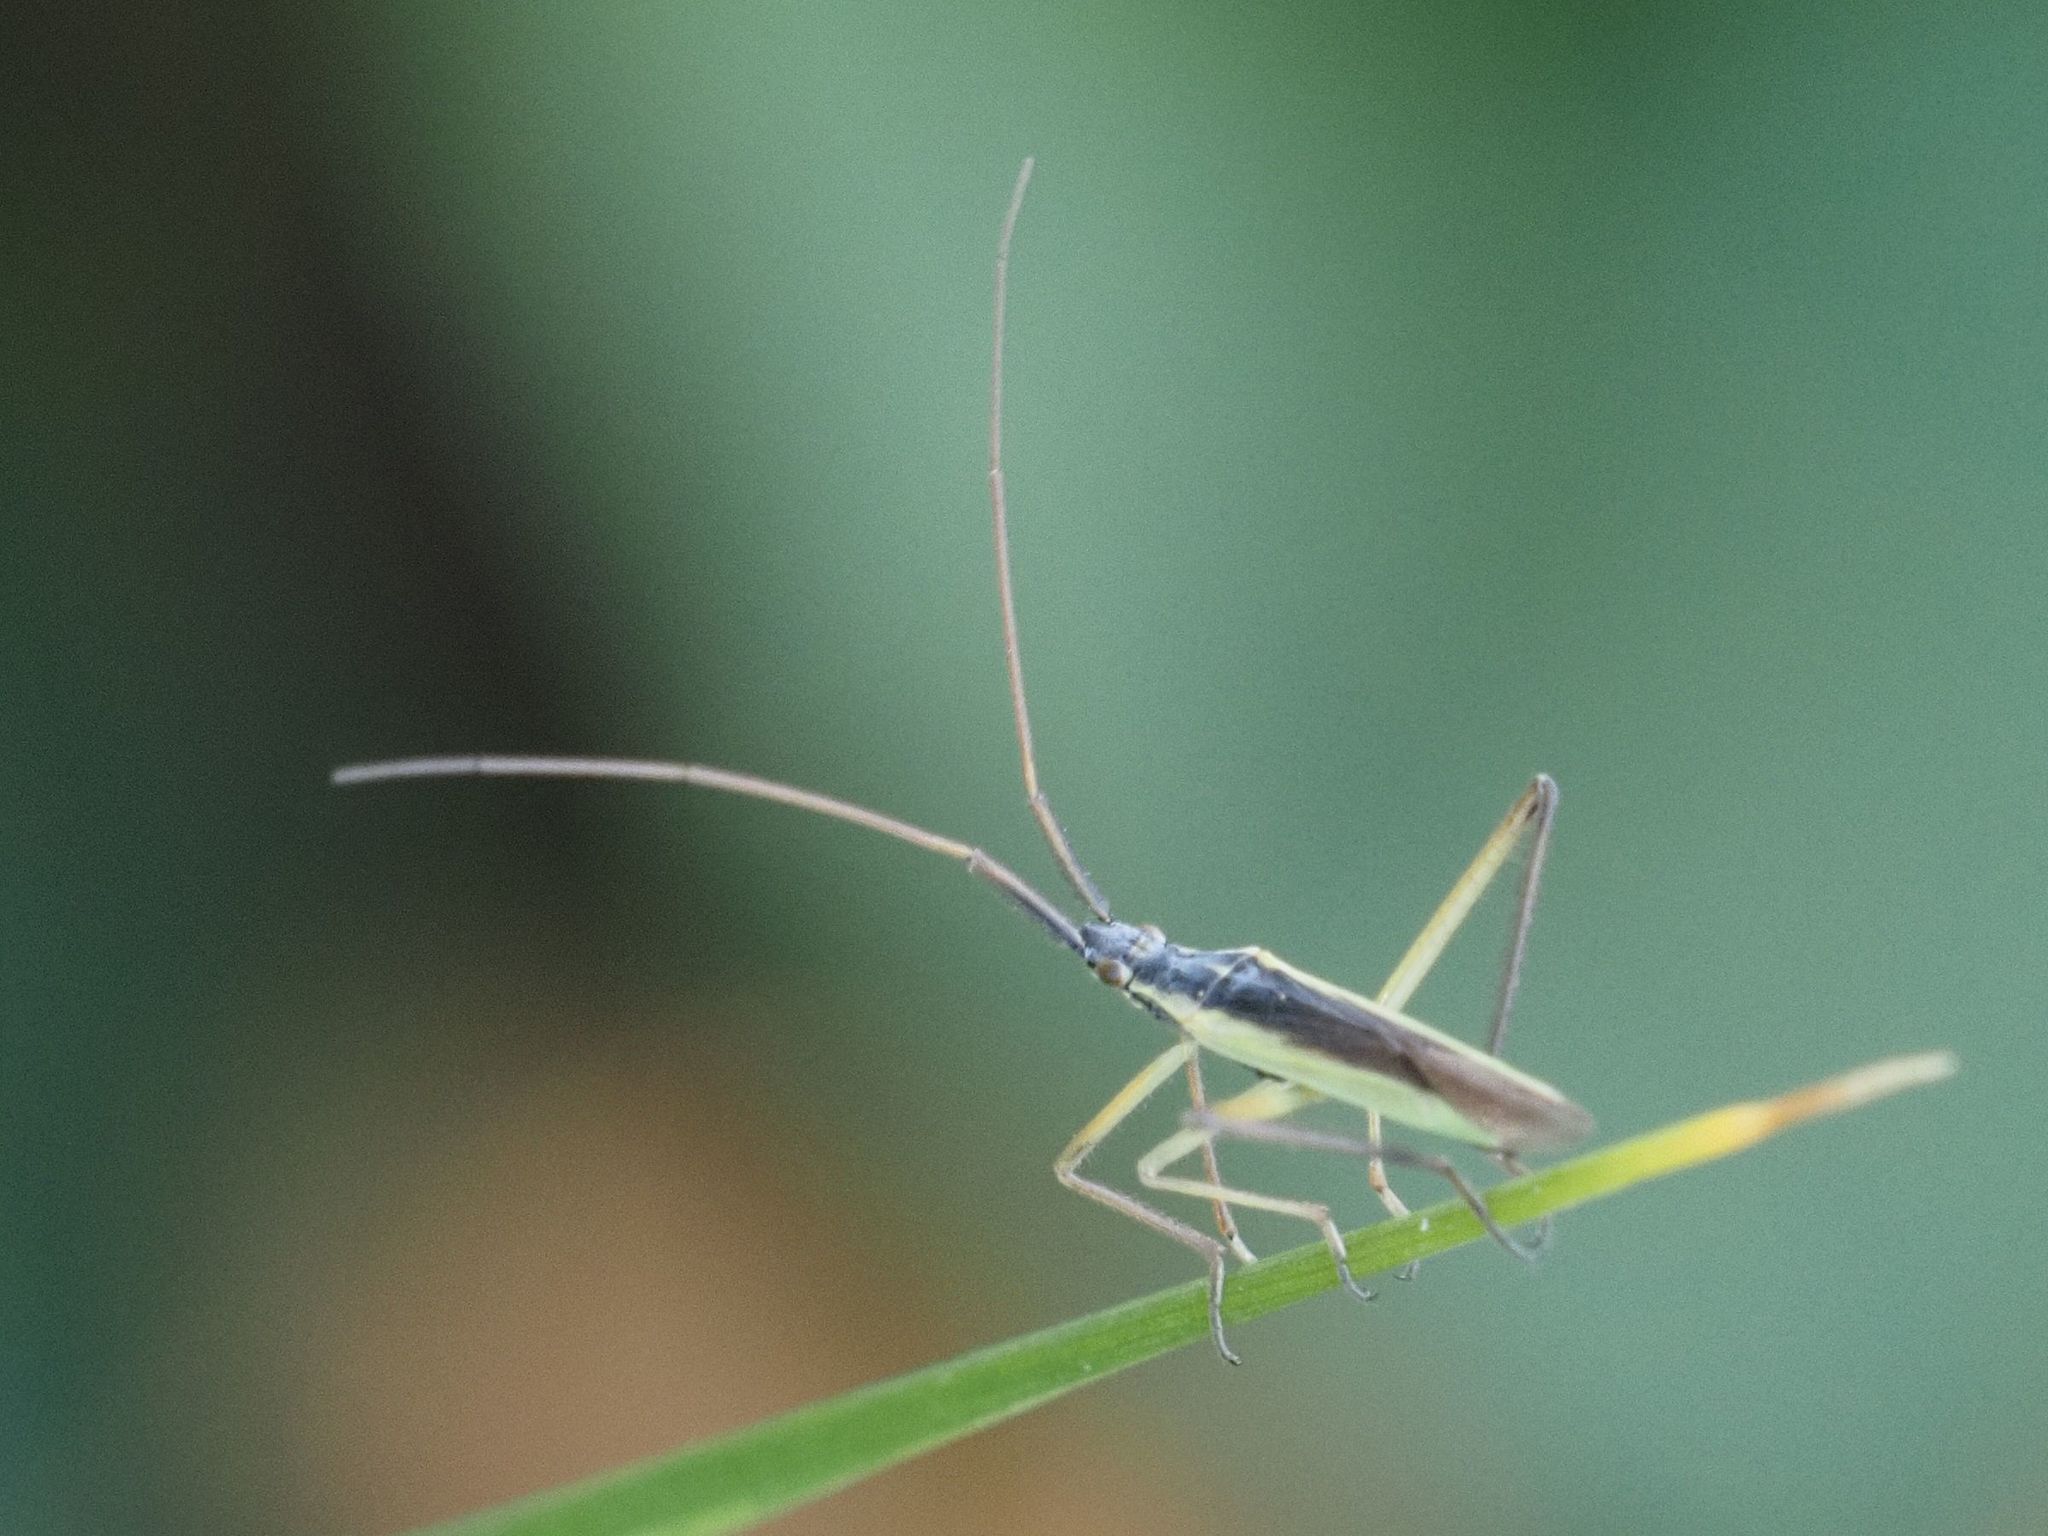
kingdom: Animalia
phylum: Arthropoda
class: Insecta
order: Hemiptera
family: Miridae
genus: Notostira
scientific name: Notostira elongata
